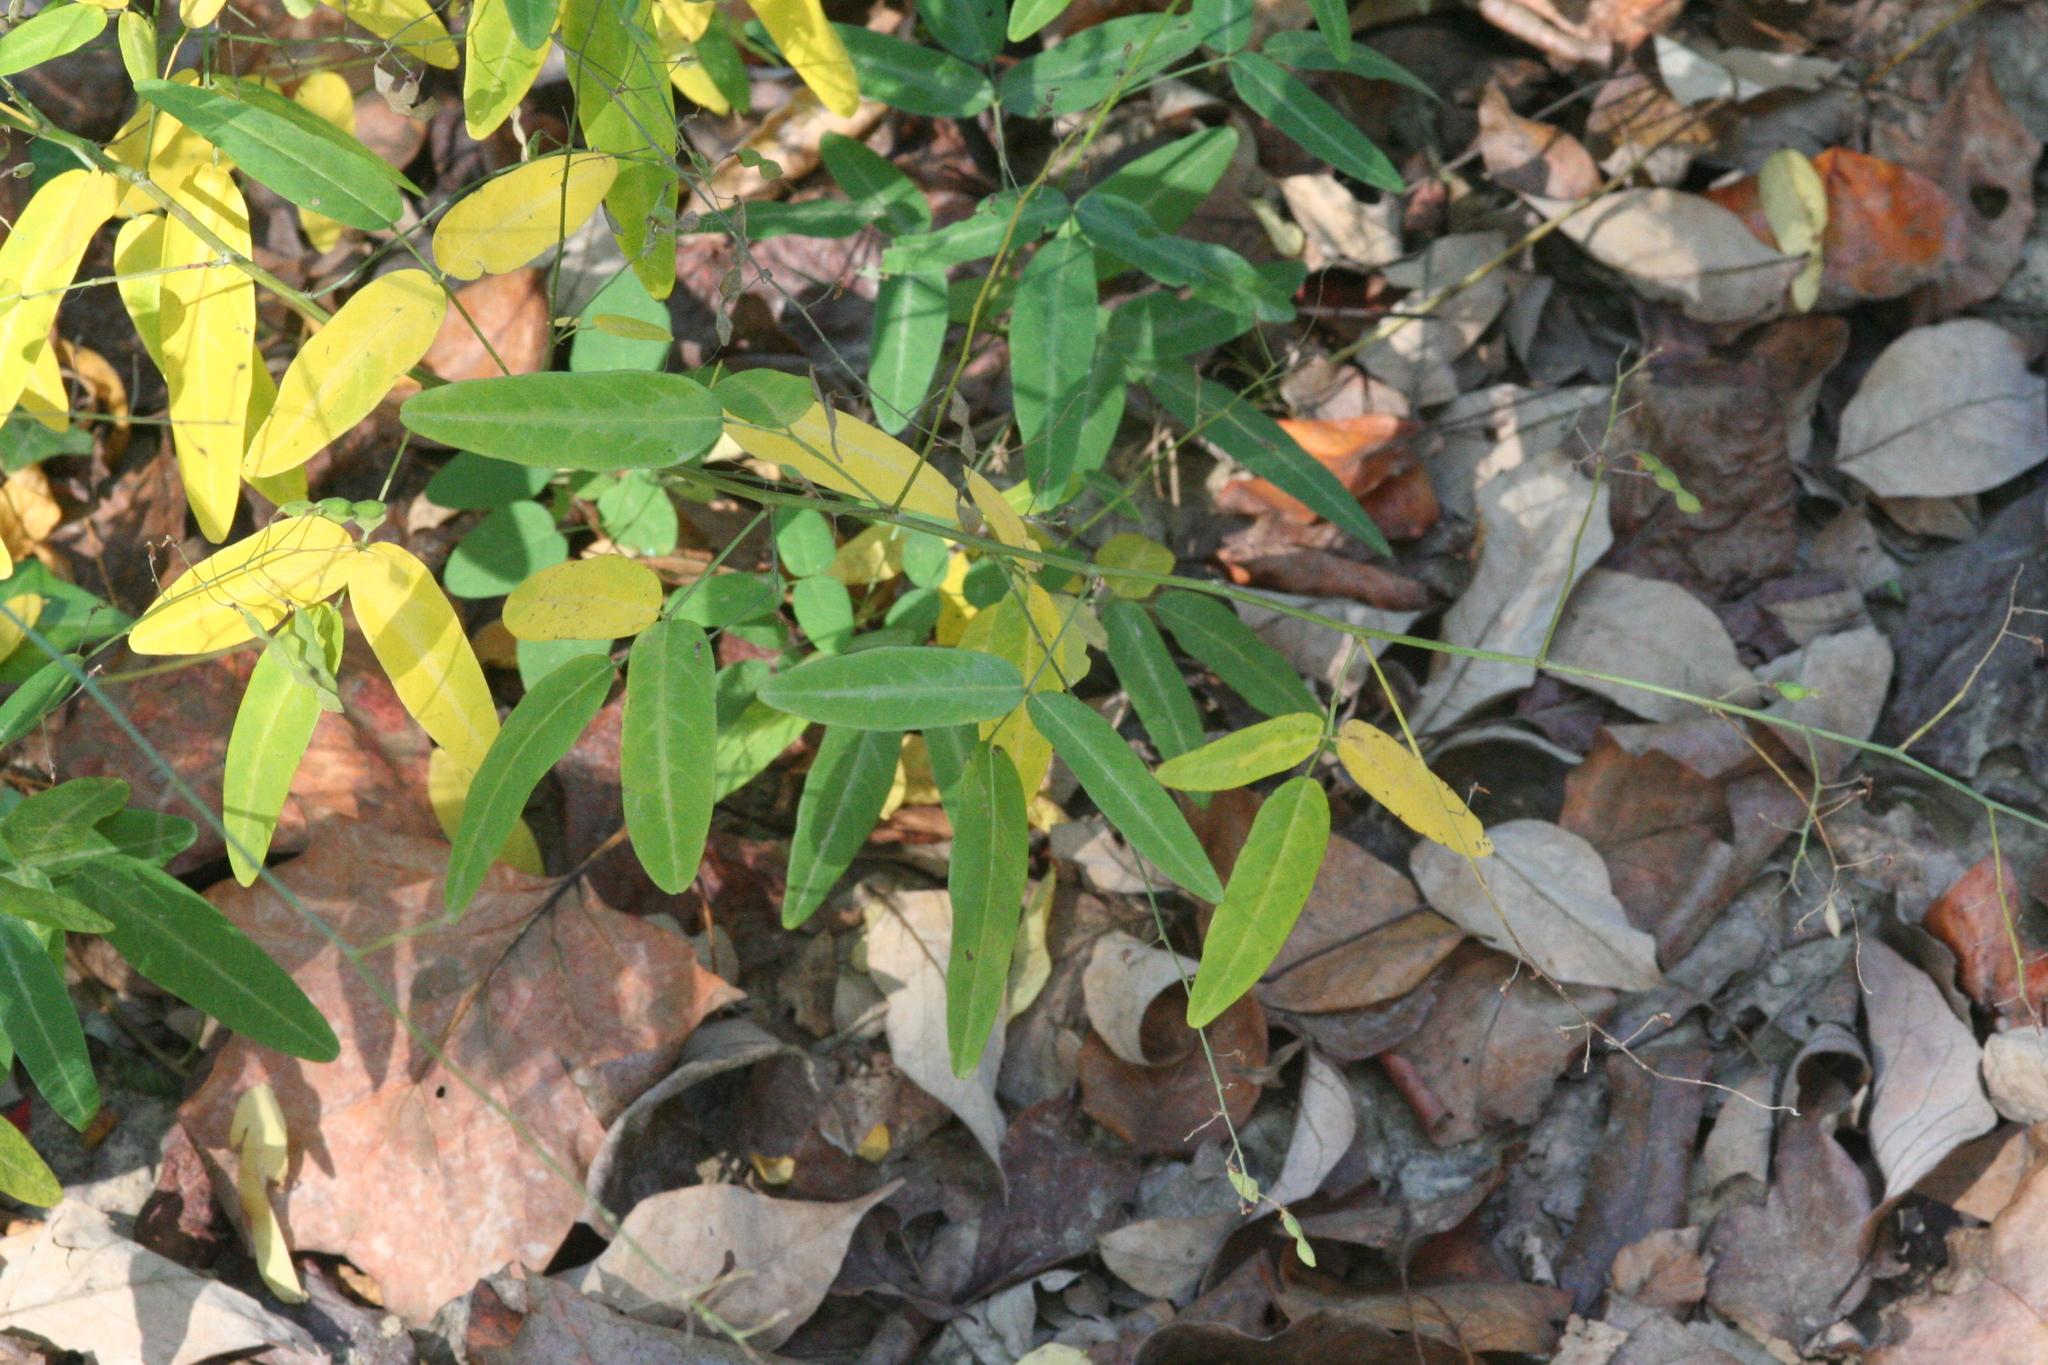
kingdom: Plantae
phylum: Tracheophyta
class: Magnoliopsida
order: Fabales
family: Fabaceae
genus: Desmodium
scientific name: Desmodium paniculatum
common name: Panicled tick-clover
